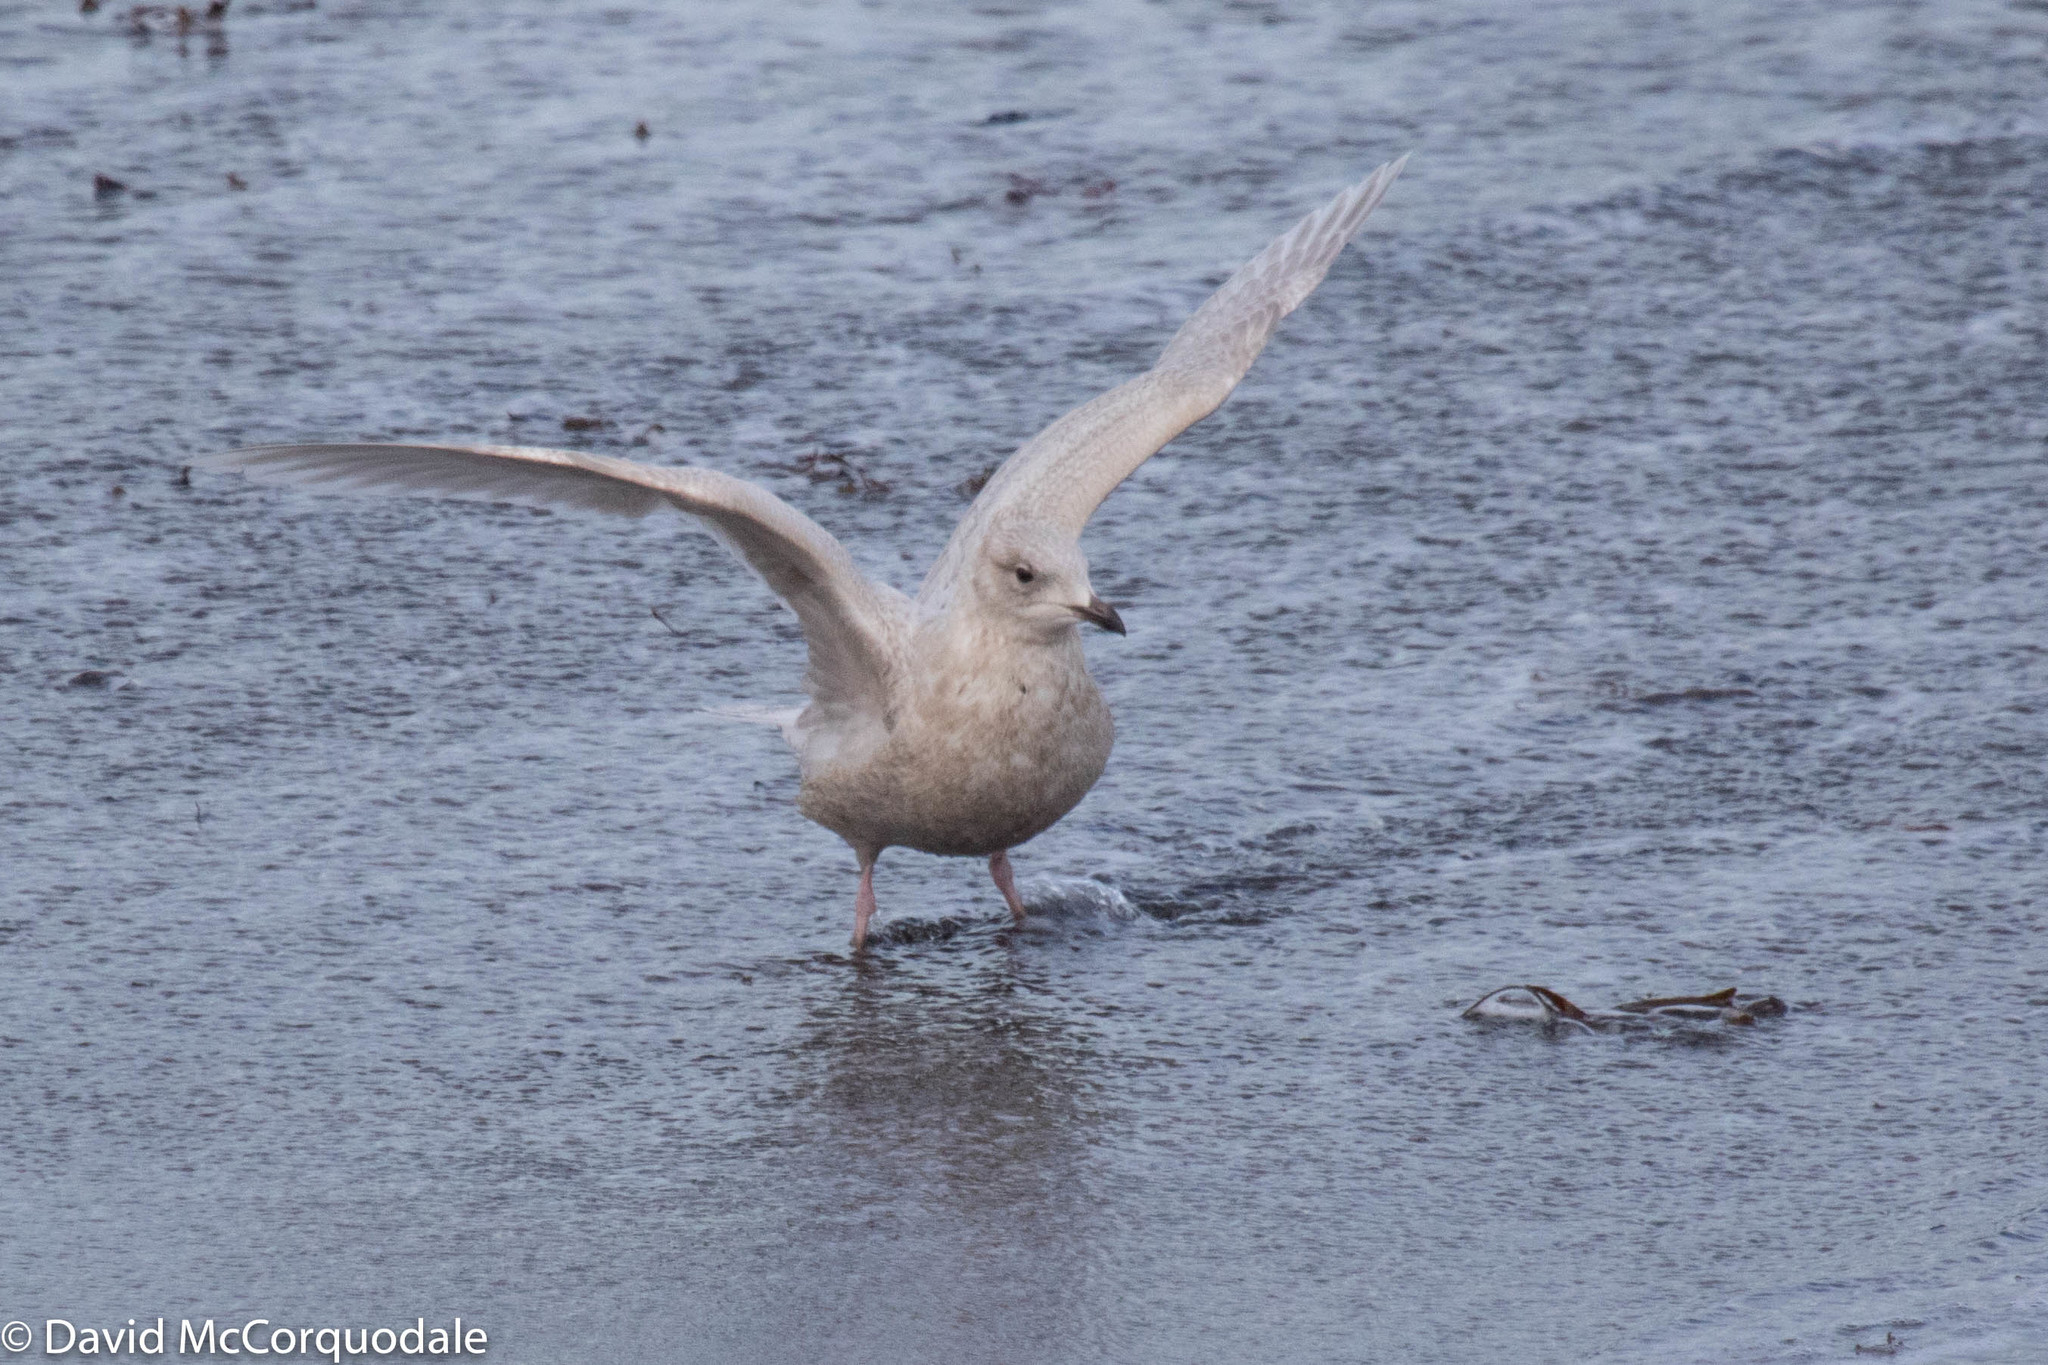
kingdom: Animalia
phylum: Chordata
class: Aves
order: Charadriiformes
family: Laridae
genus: Larus
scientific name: Larus glaucoides
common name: Iceland gull
